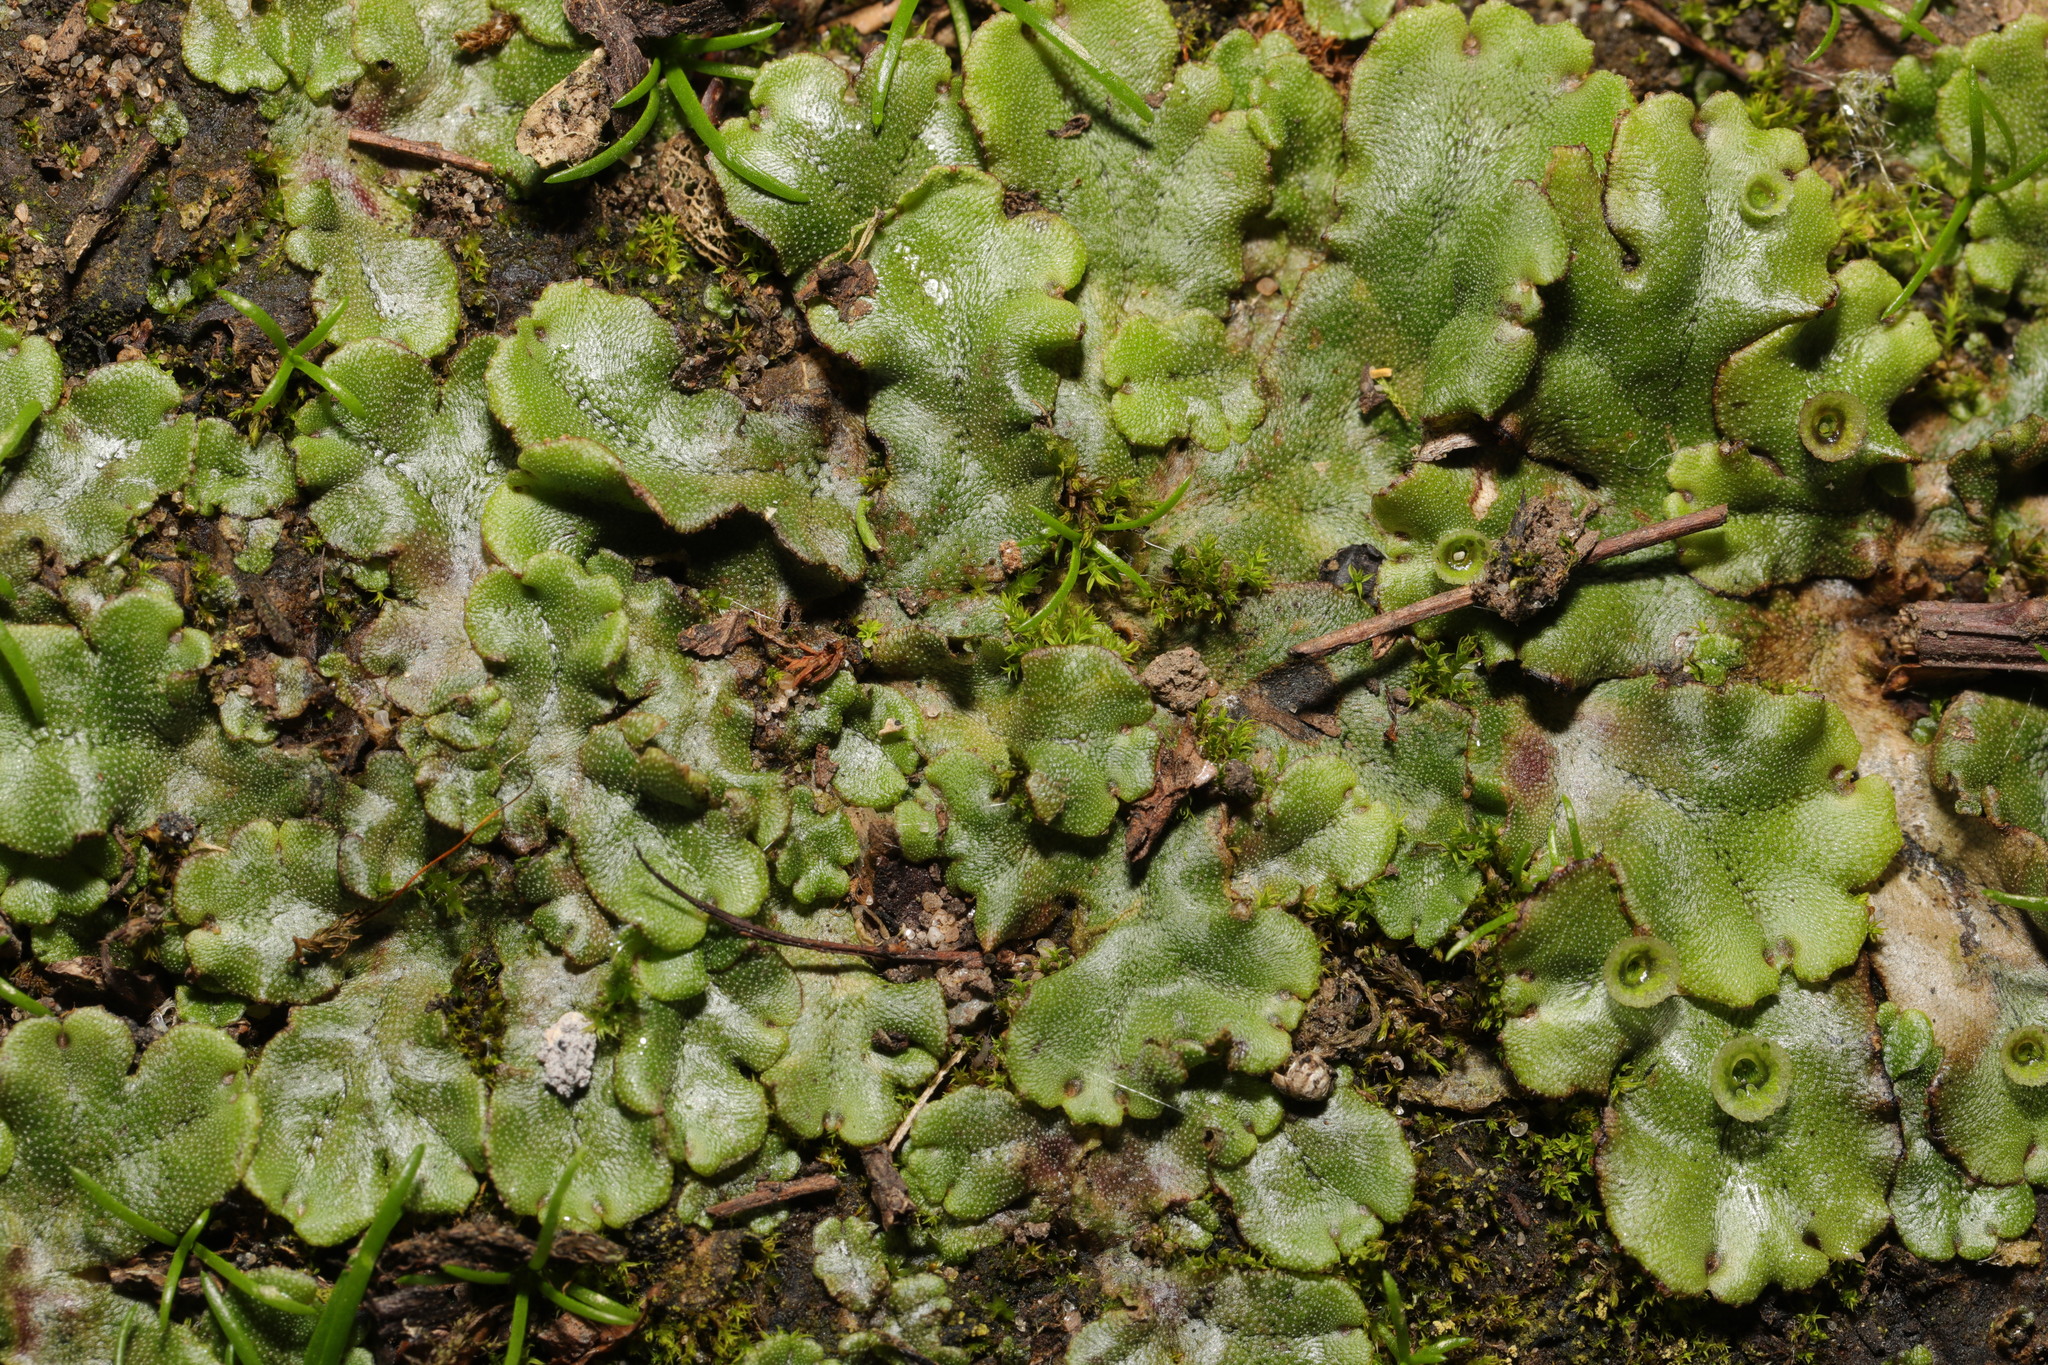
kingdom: Plantae
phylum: Marchantiophyta
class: Marchantiopsida
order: Marchantiales
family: Marchantiaceae
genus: Marchantia
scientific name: Marchantia polymorpha
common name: Common liverwort
